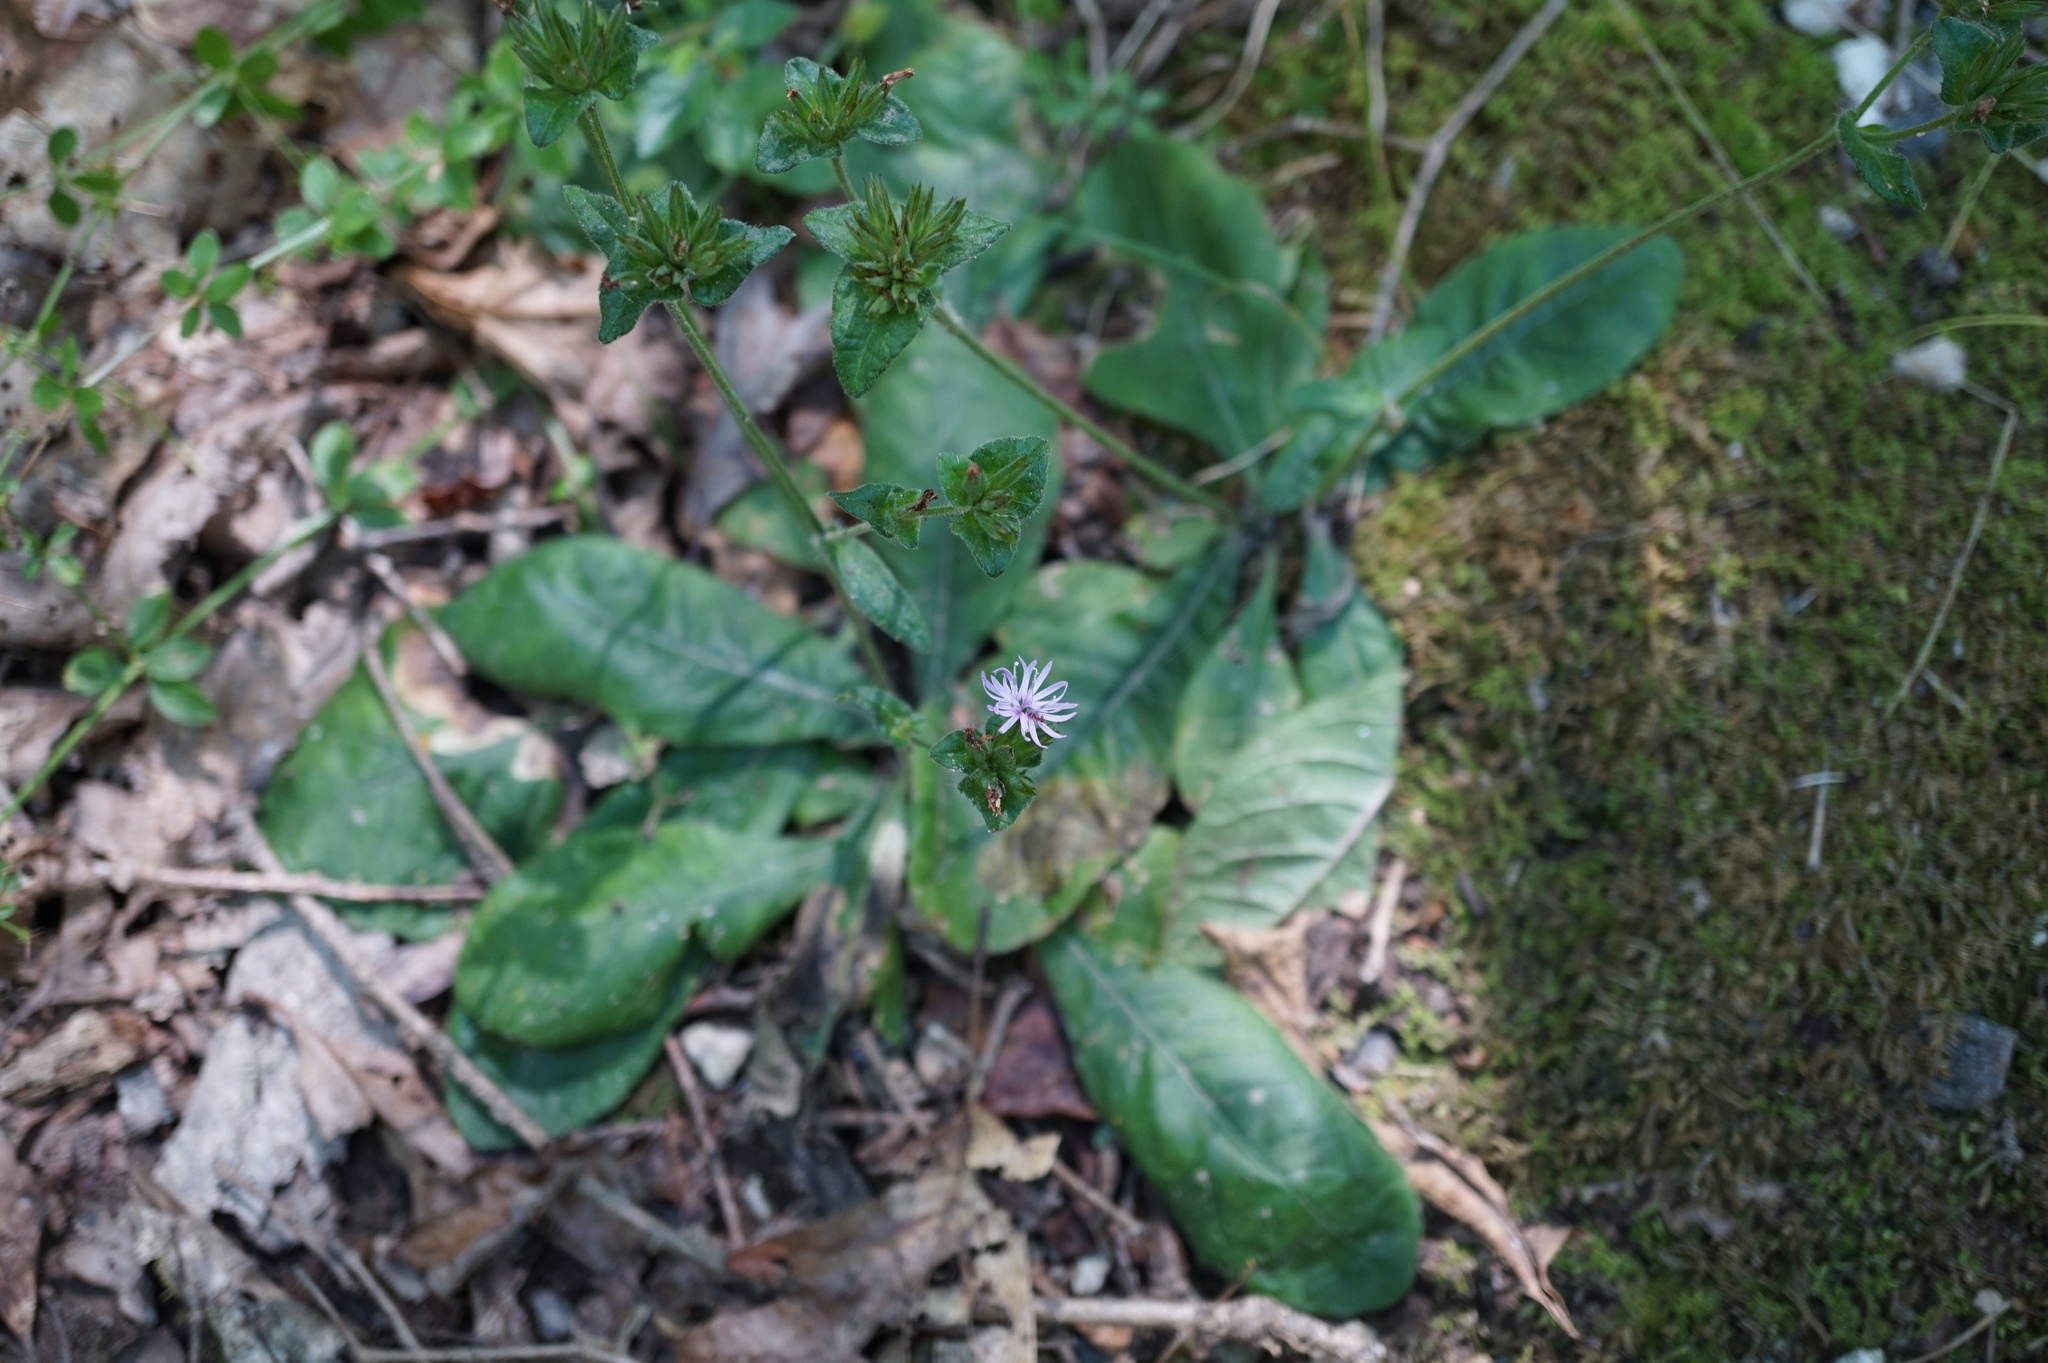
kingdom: Plantae
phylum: Tracheophyta
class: Magnoliopsida
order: Asterales
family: Asteraceae
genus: Elephantopus
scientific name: Elephantopus tomentosus
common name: Tobacco-weed
